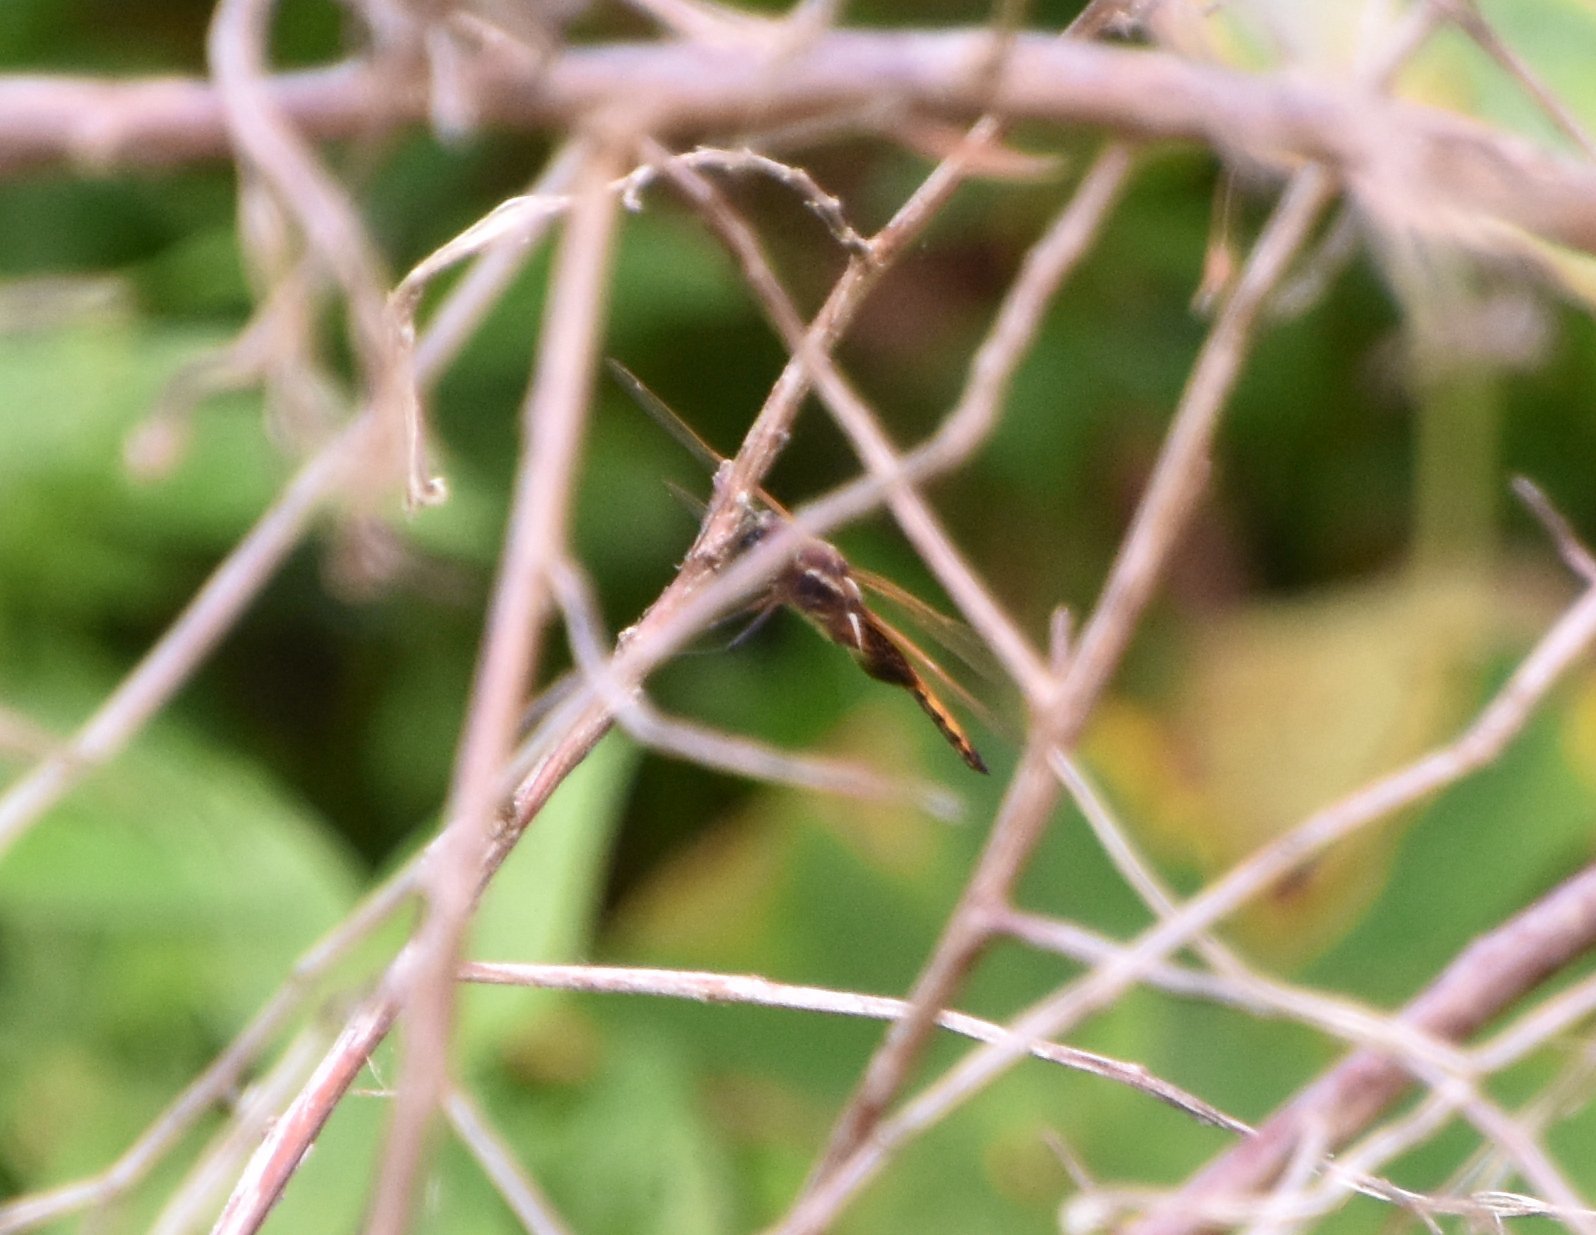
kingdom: Animalia
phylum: Arthropoda
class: Insecta
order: Odonata
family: Libellulidae
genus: Miathyria
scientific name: Miathyria marcella
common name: Hyacinth glider
